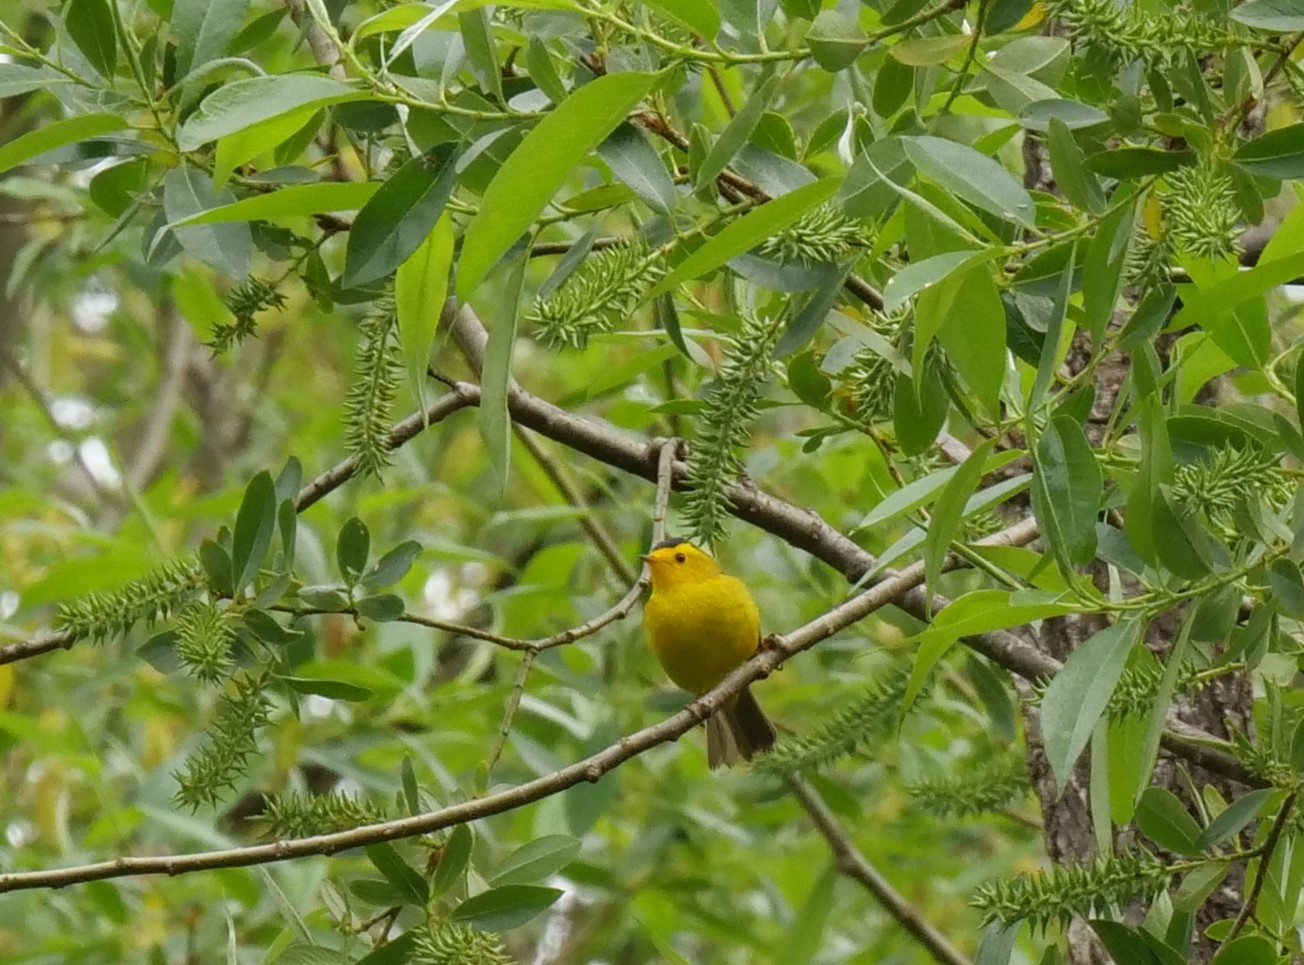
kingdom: Animalia
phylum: Chordata
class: Aves
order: Passeriformes
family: Parulidae
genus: Cardellina
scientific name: Cardellina pusilla
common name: Wilson's warbler
